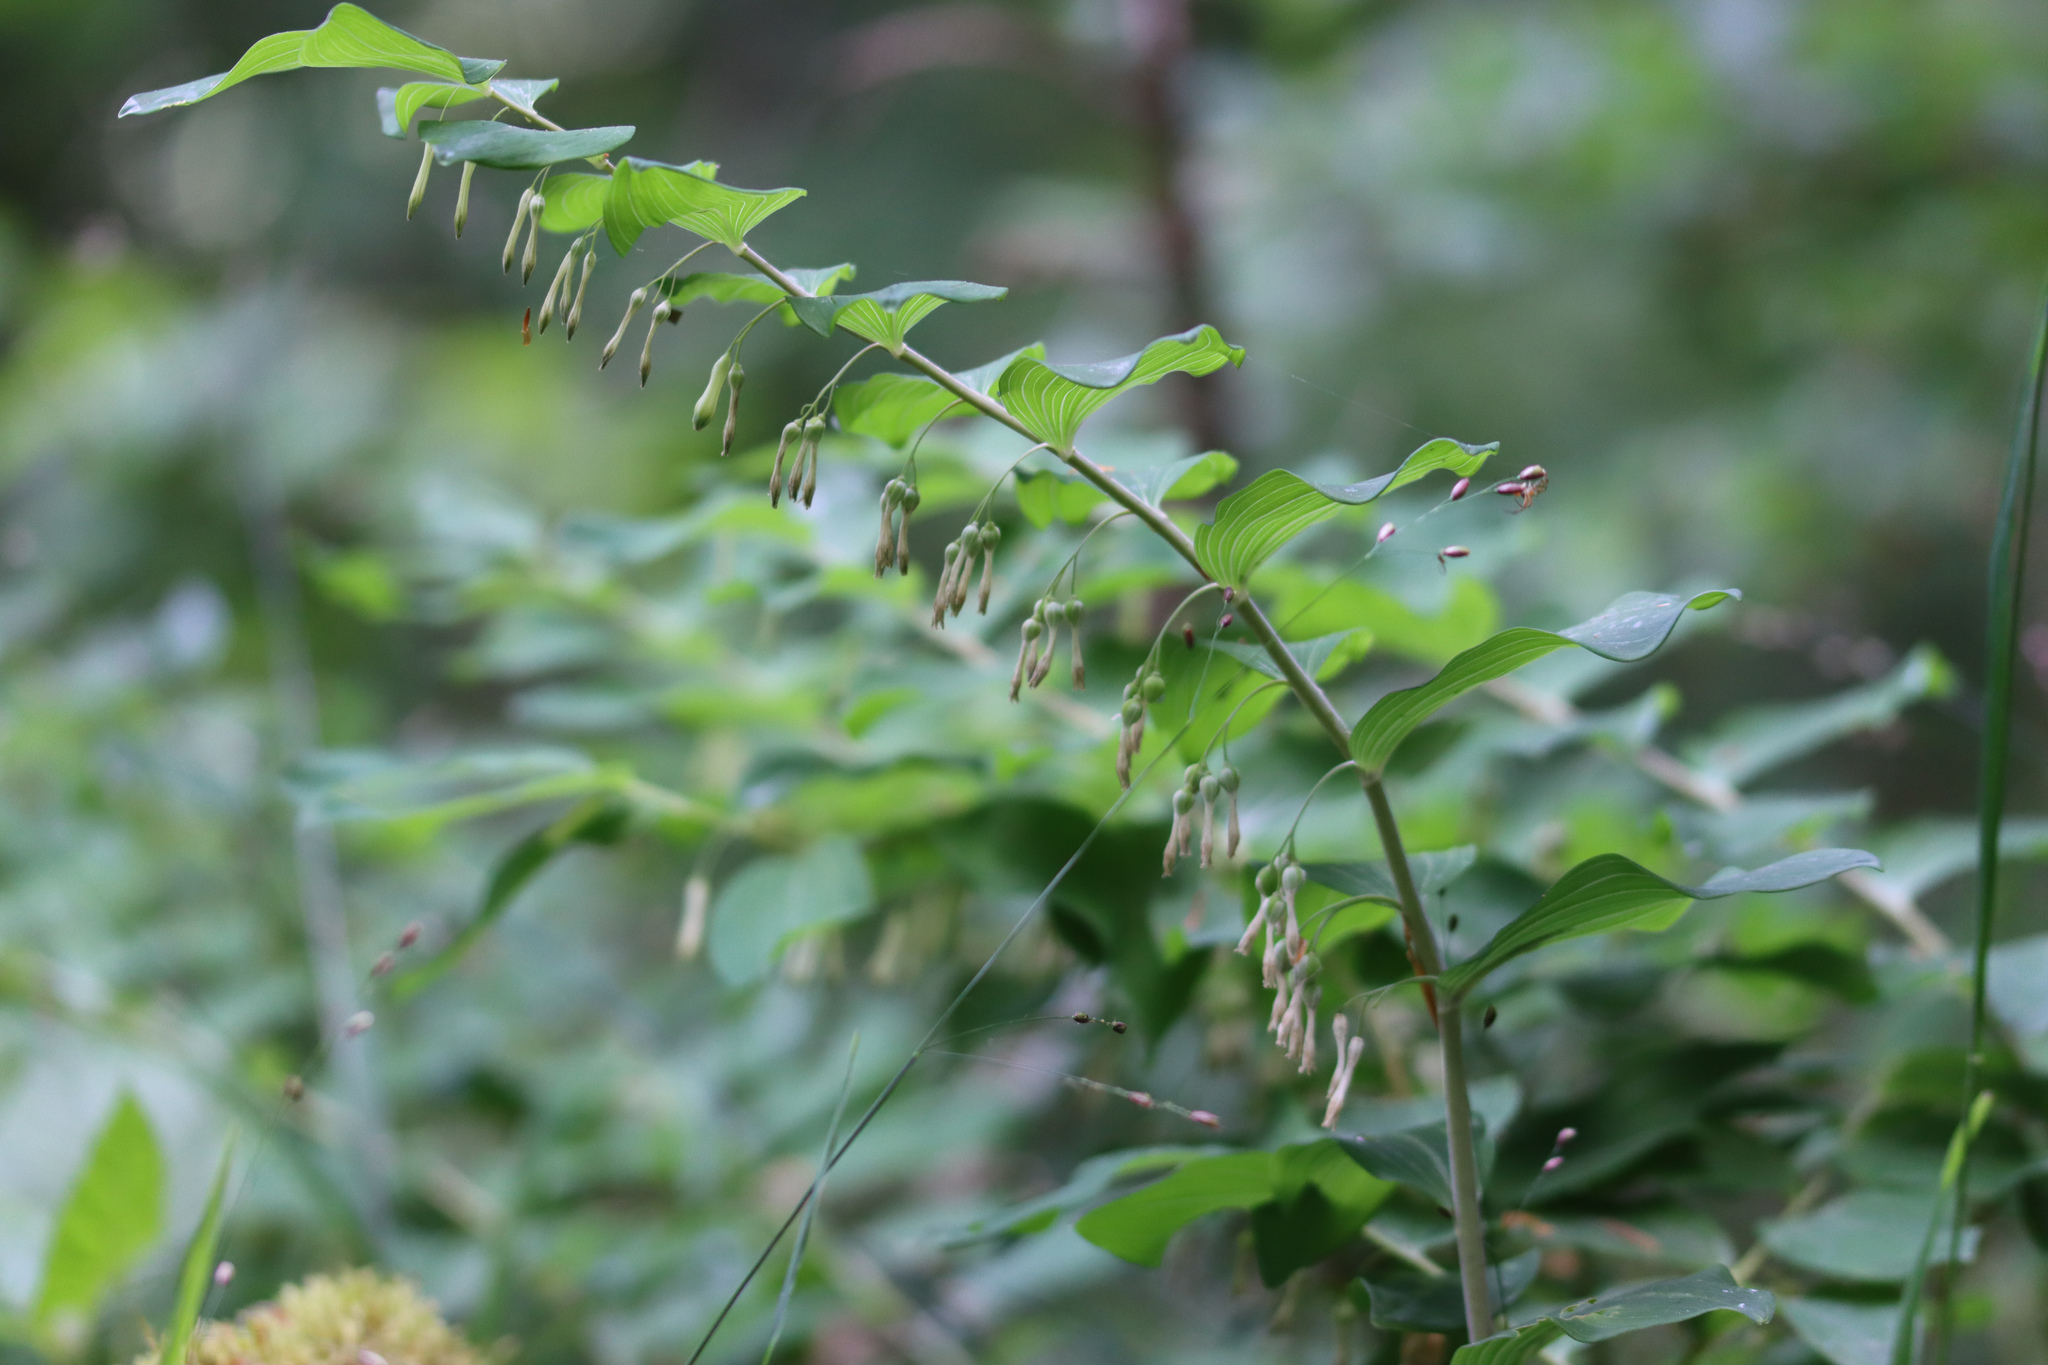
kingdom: Plantae
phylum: Tracheophyta
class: Liliopsida
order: Asparagales
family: Asparagaceae
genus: Polygonatum
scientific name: Polygonatum multiflorum
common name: Solomon's-seal
